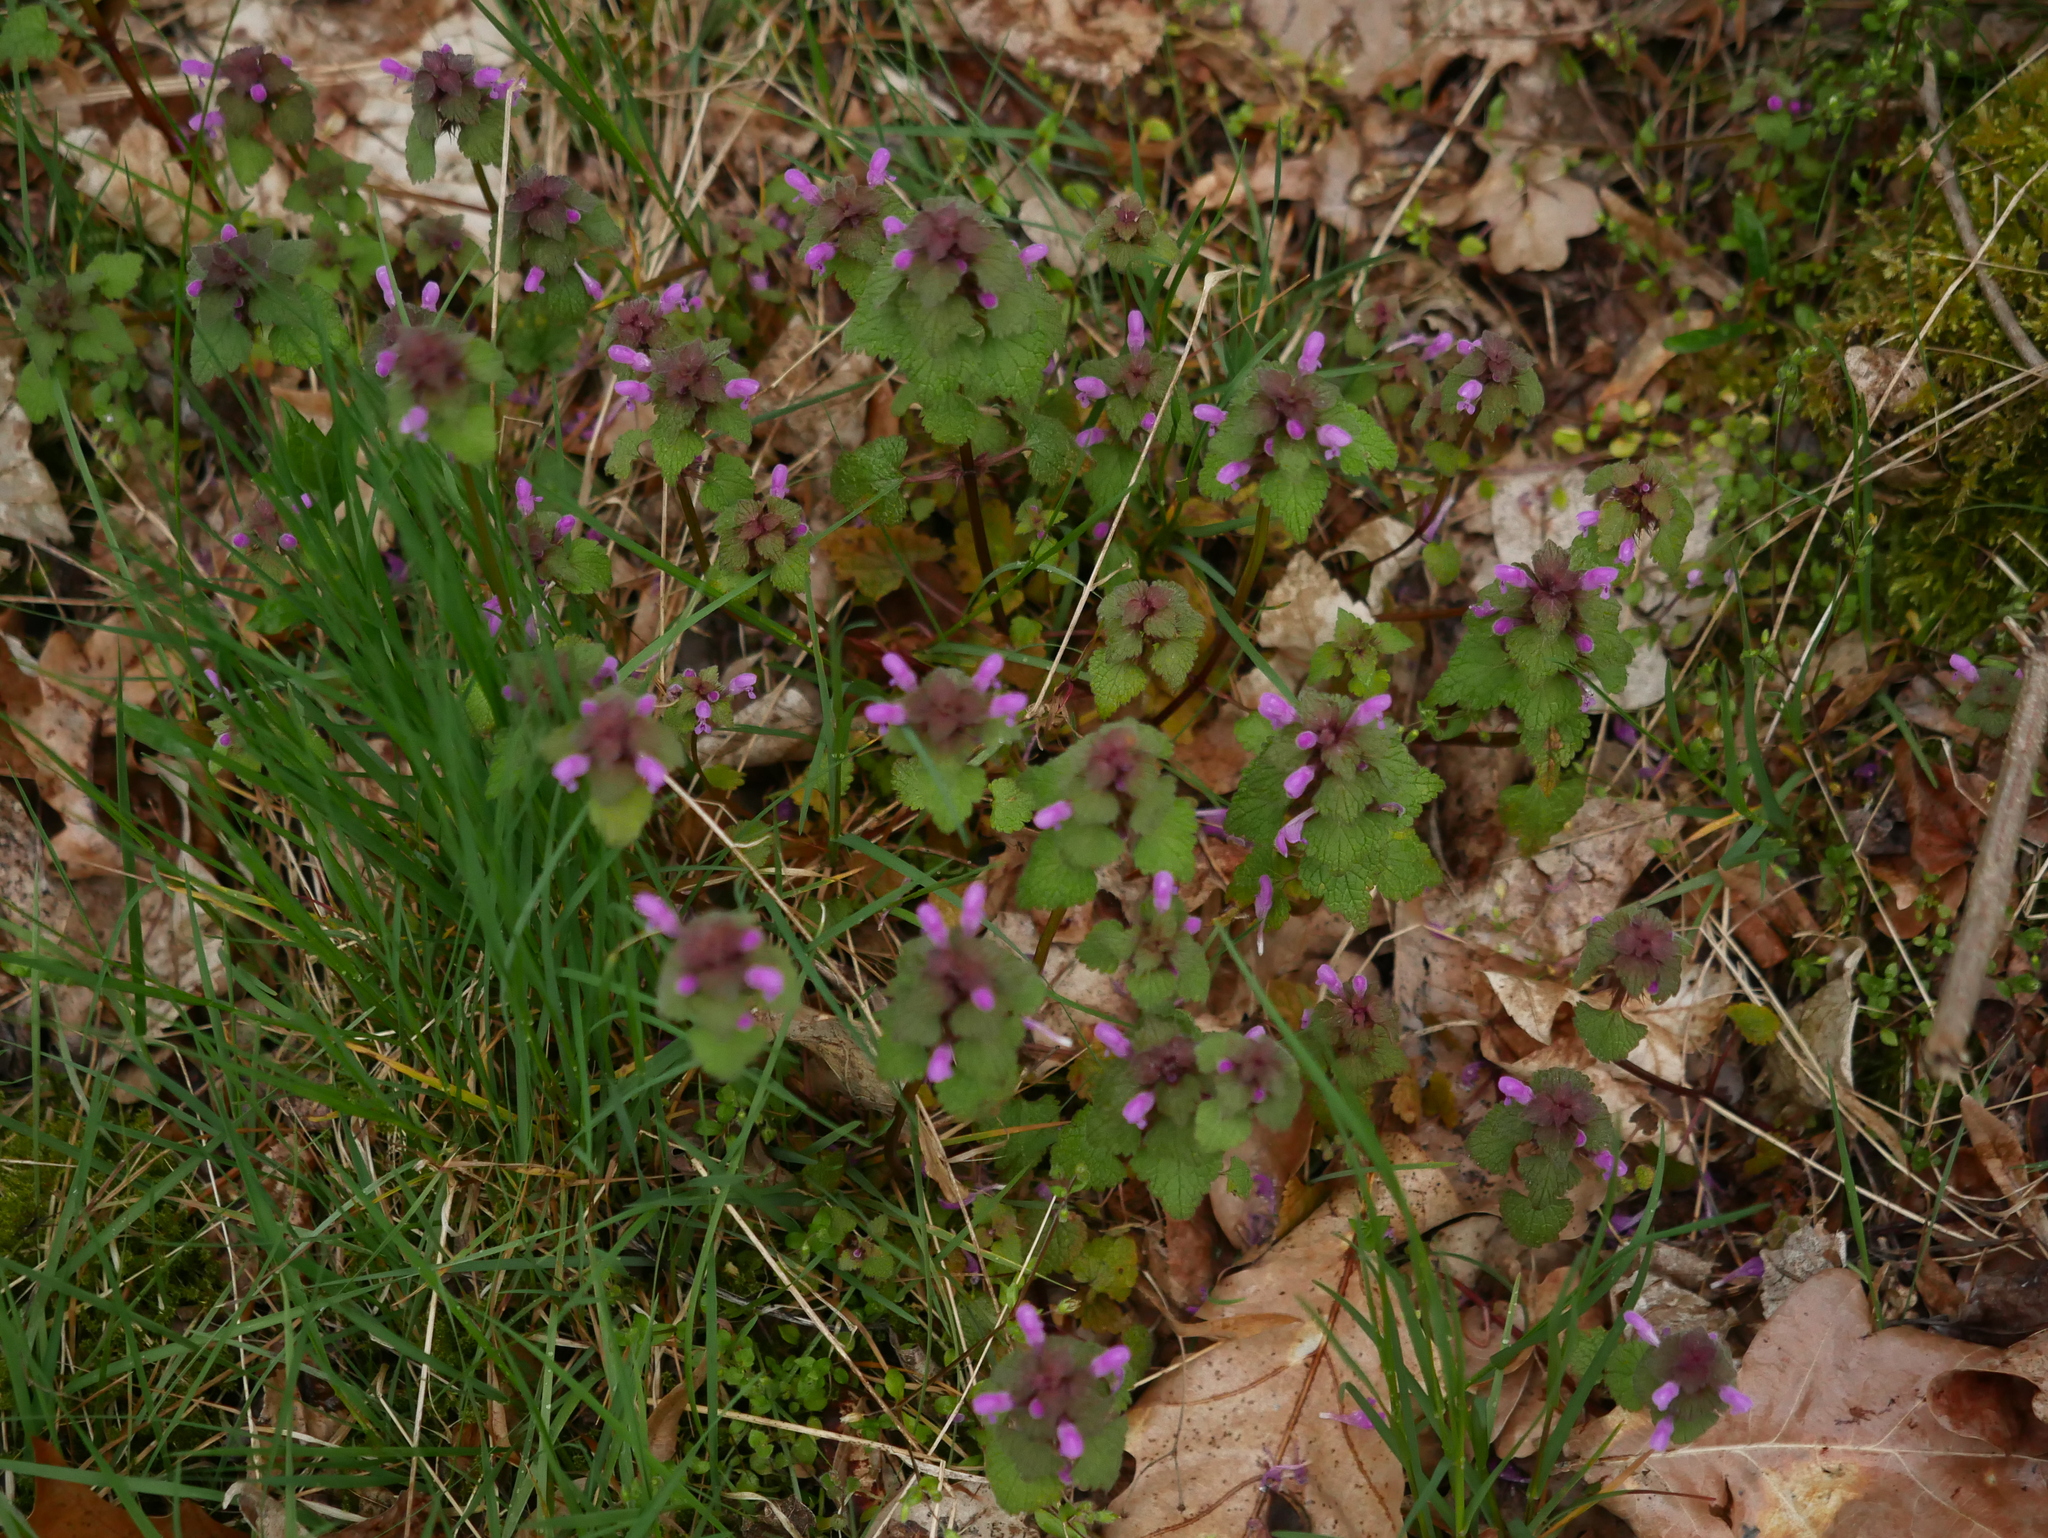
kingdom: Plantae
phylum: Tracheophyta
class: Magnoliopsida
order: Lamiales
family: Lamiaceae
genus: Lamium
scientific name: Lamium purpureum
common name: Red dead-nettle
